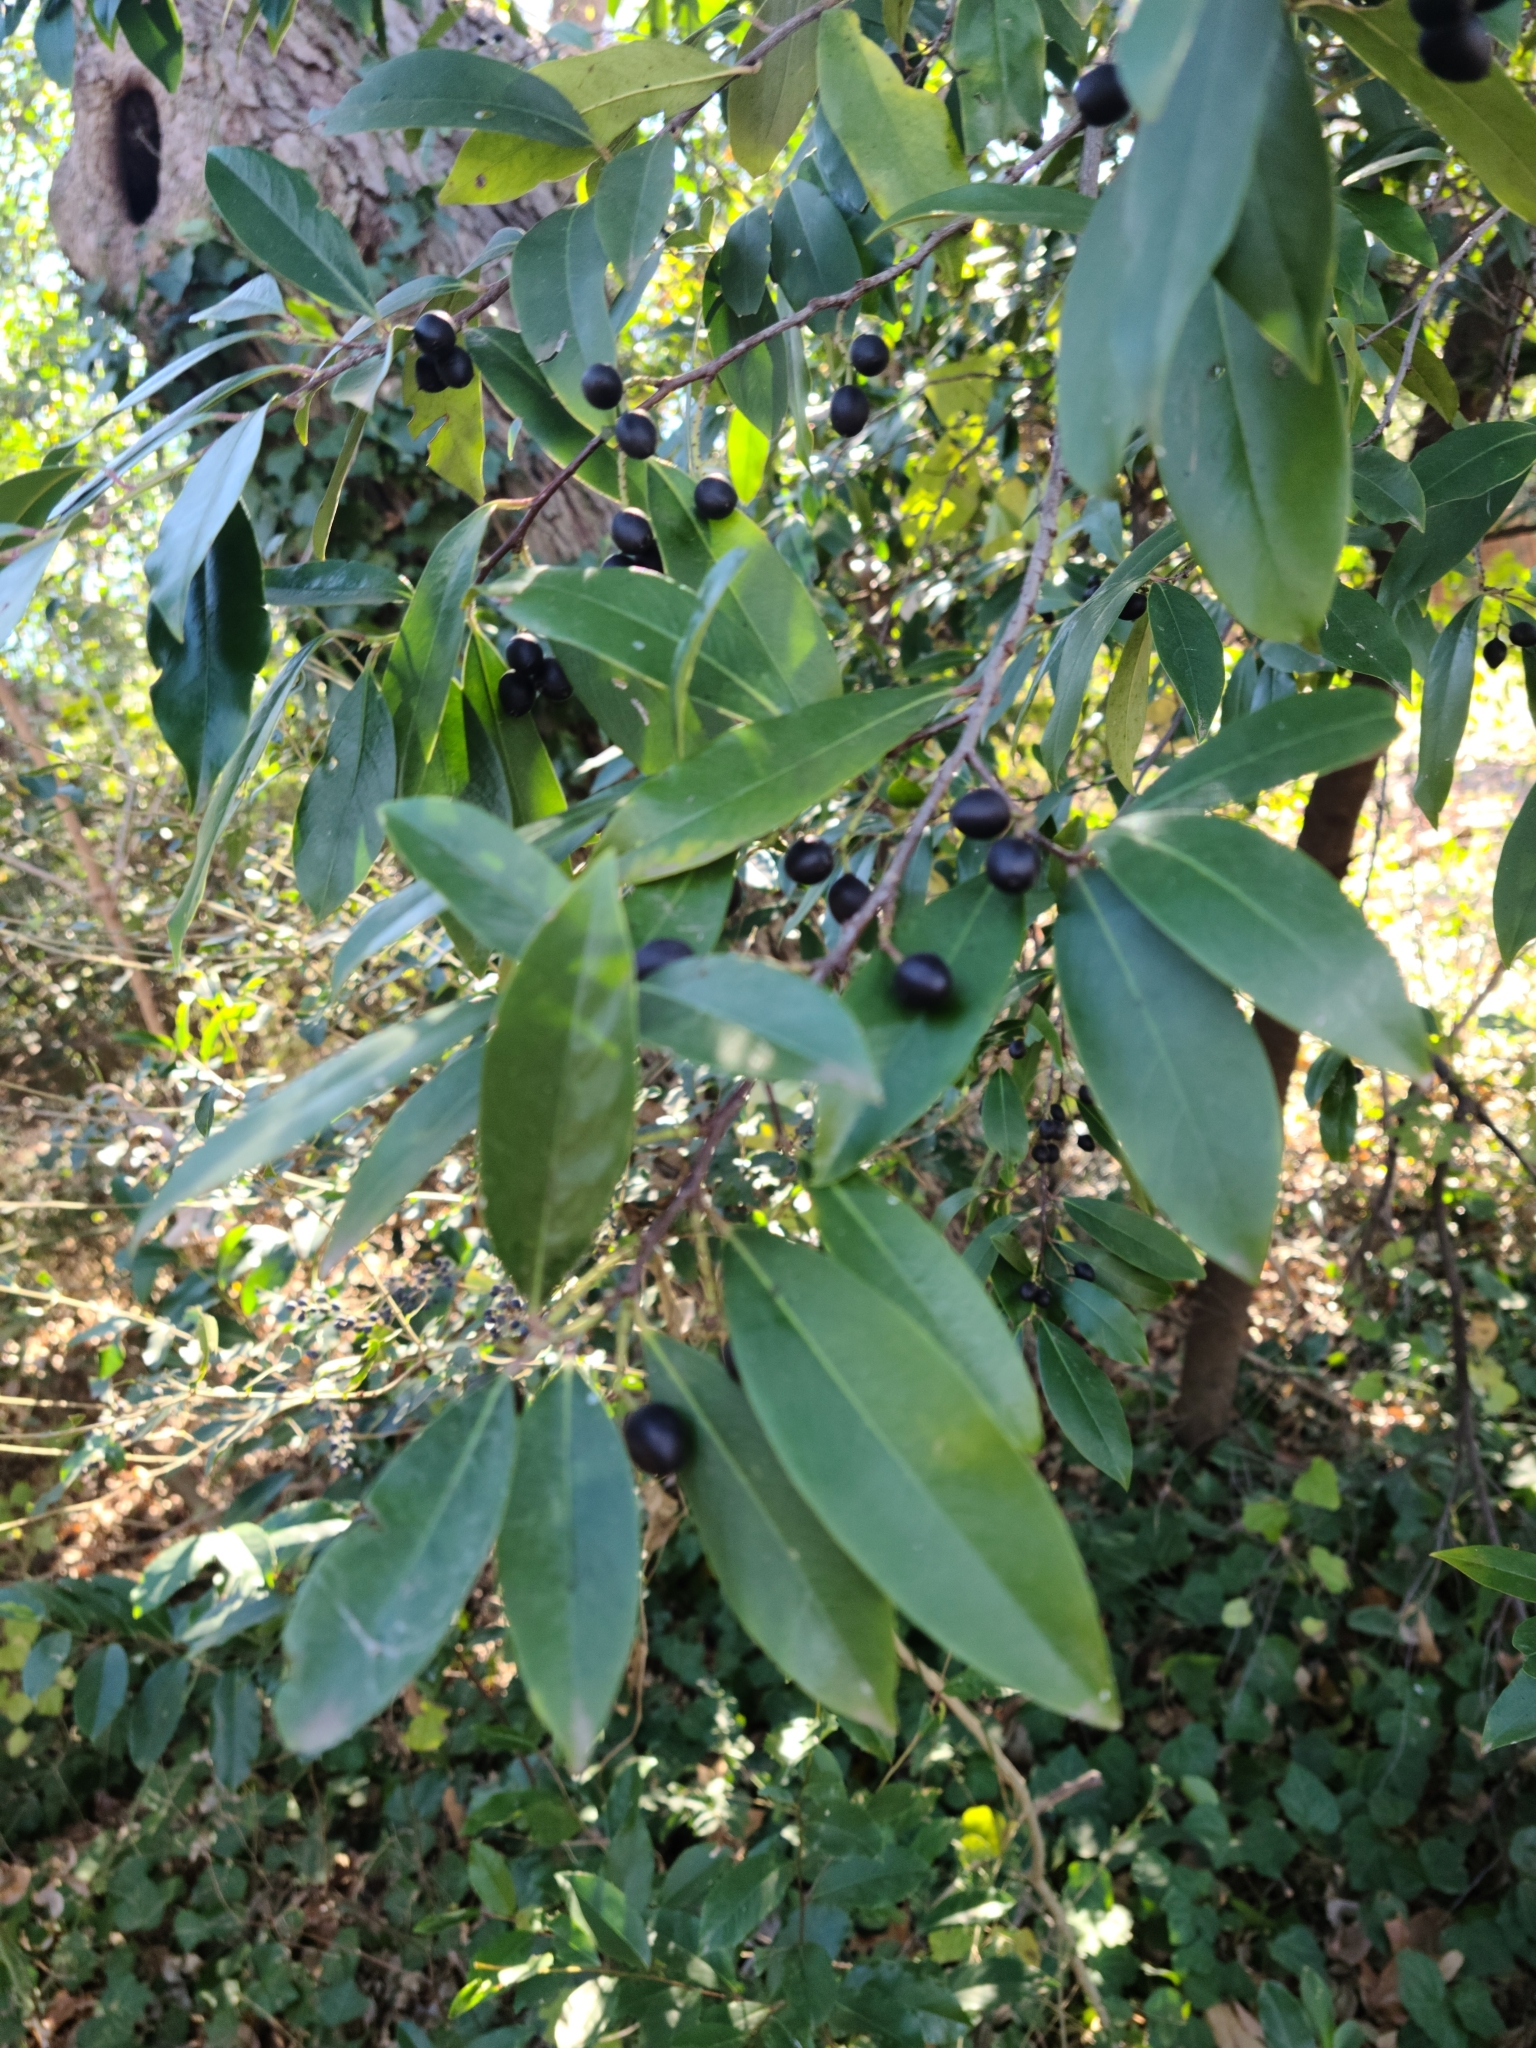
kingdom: Plantae
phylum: Tracheophyta
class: Magnoliopsida
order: Rosales
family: Rosaceae
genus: Prunus
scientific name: Prunus caroliniana
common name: Carolina laurel cherry
